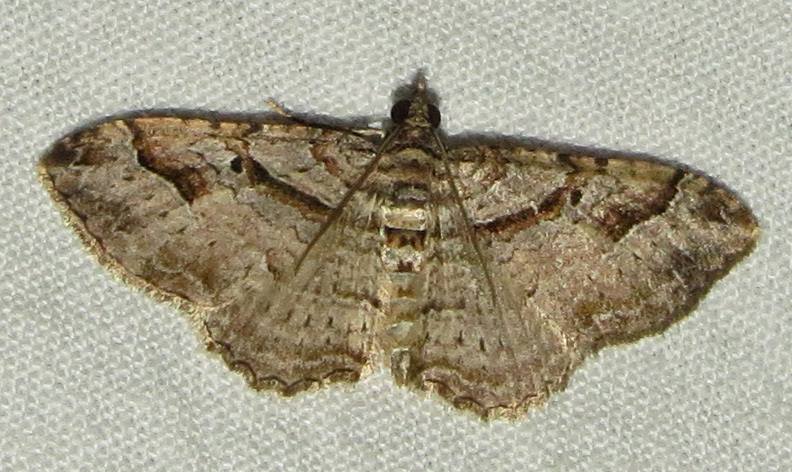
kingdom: Animalia
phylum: Arthropoda
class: Insecta
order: Lepidoptera
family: Geometridae
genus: Costaconvexa
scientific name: Costaconvexa centrostrigaria
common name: Bent-line carpet
